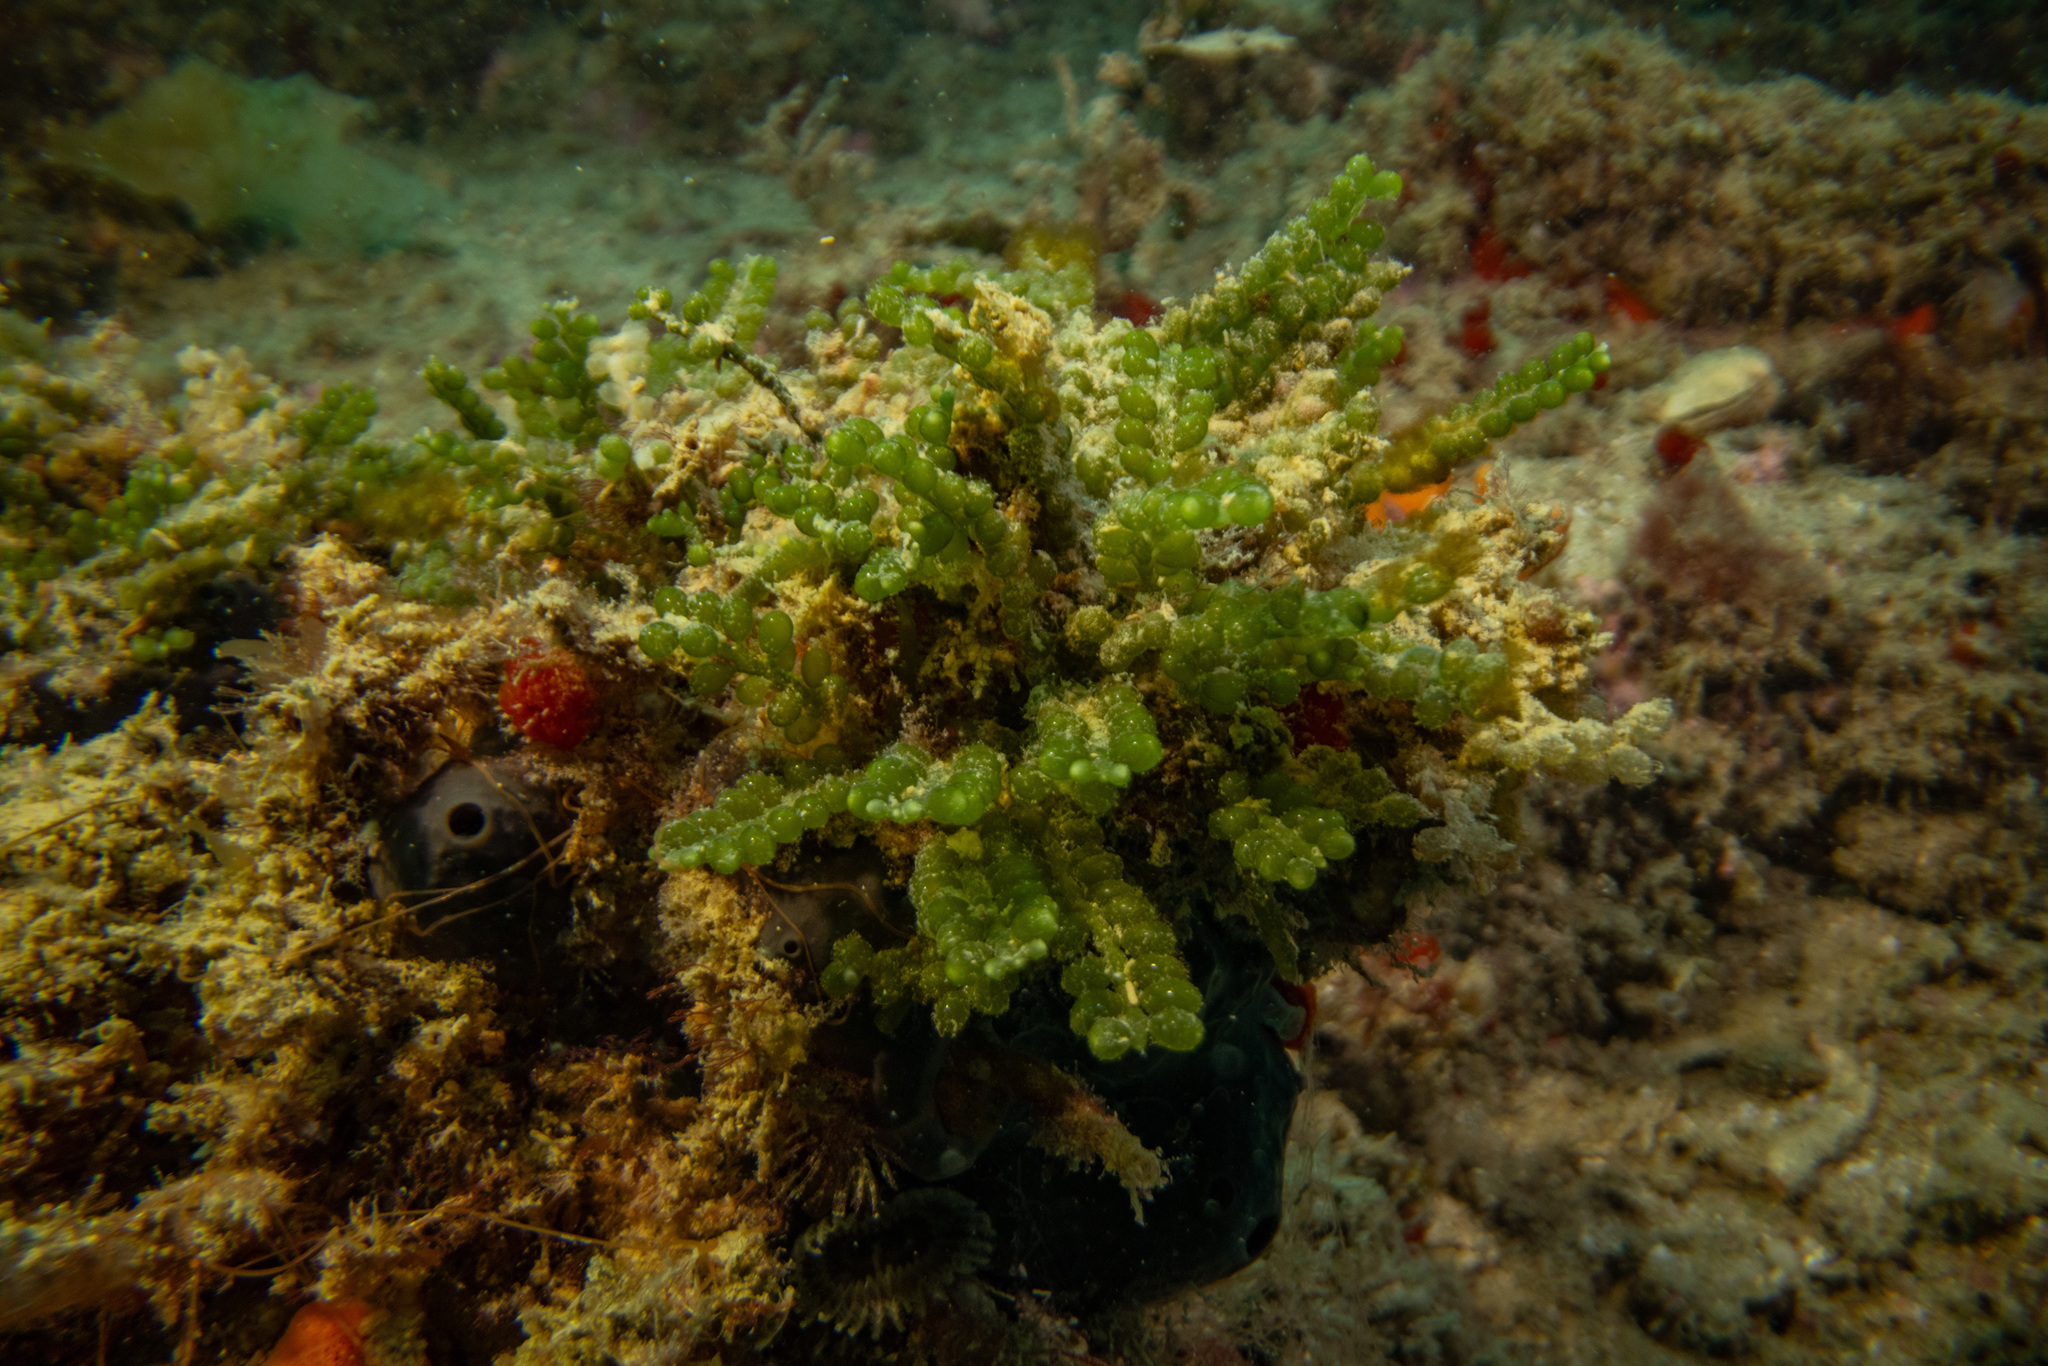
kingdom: Plantae
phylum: Chlorophyta
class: Ulvophyceae
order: Bryopsidales
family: Caulerpaceae
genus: Caulerpa
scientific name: Caulerpa geminata
